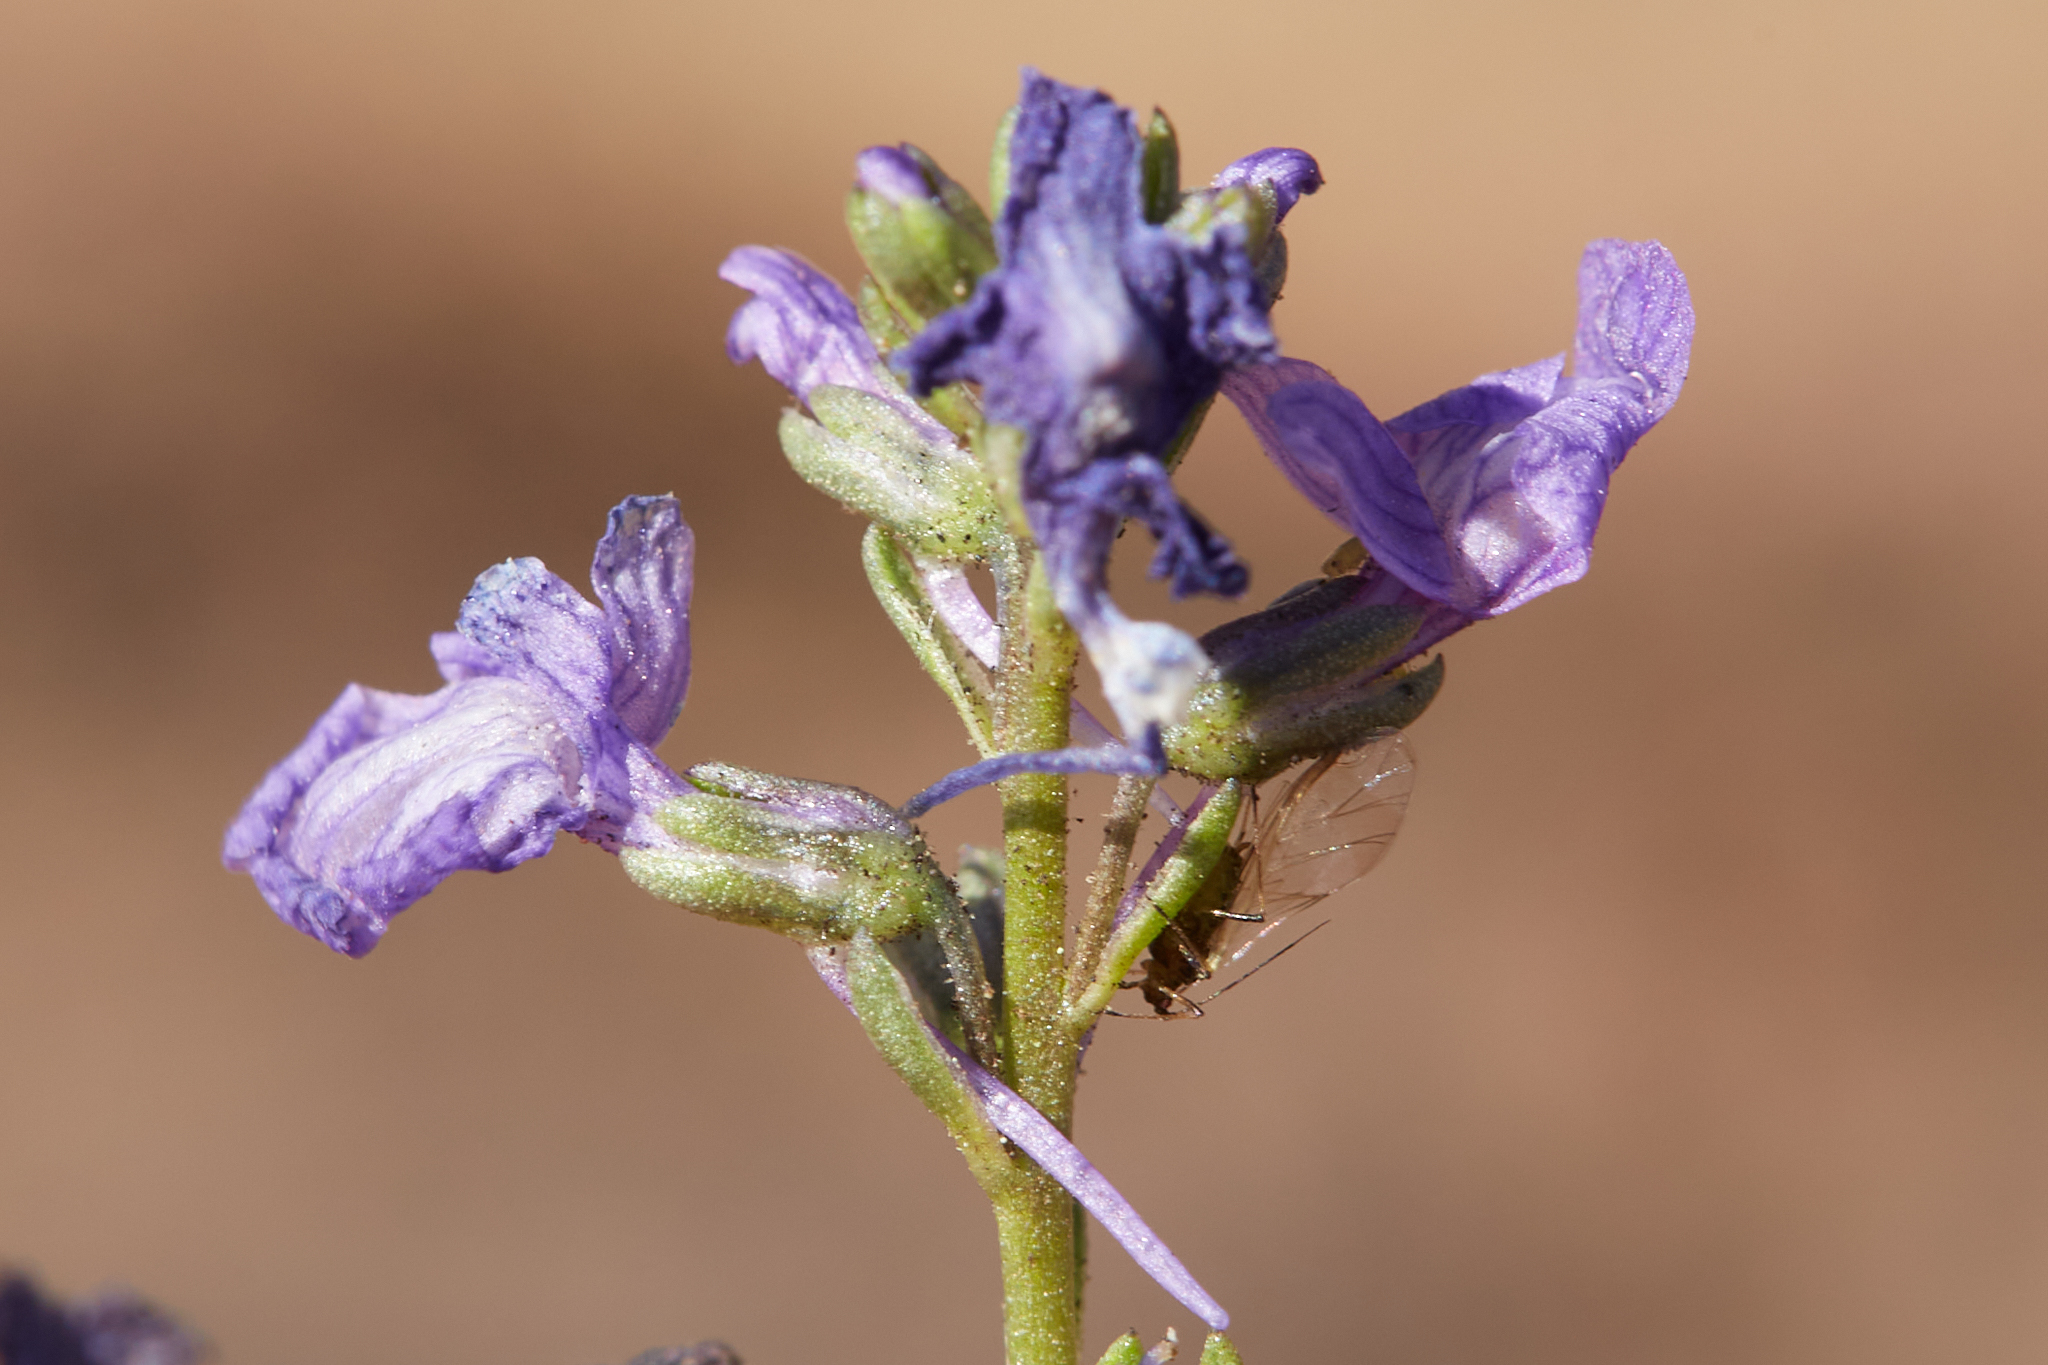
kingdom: Plantae
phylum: Tracheophyta
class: Magnoliopsida
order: Lamiales
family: Plantaginaceae
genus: Nuttallanthus
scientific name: Nuttallanthus texanus
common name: Texas toadflax
